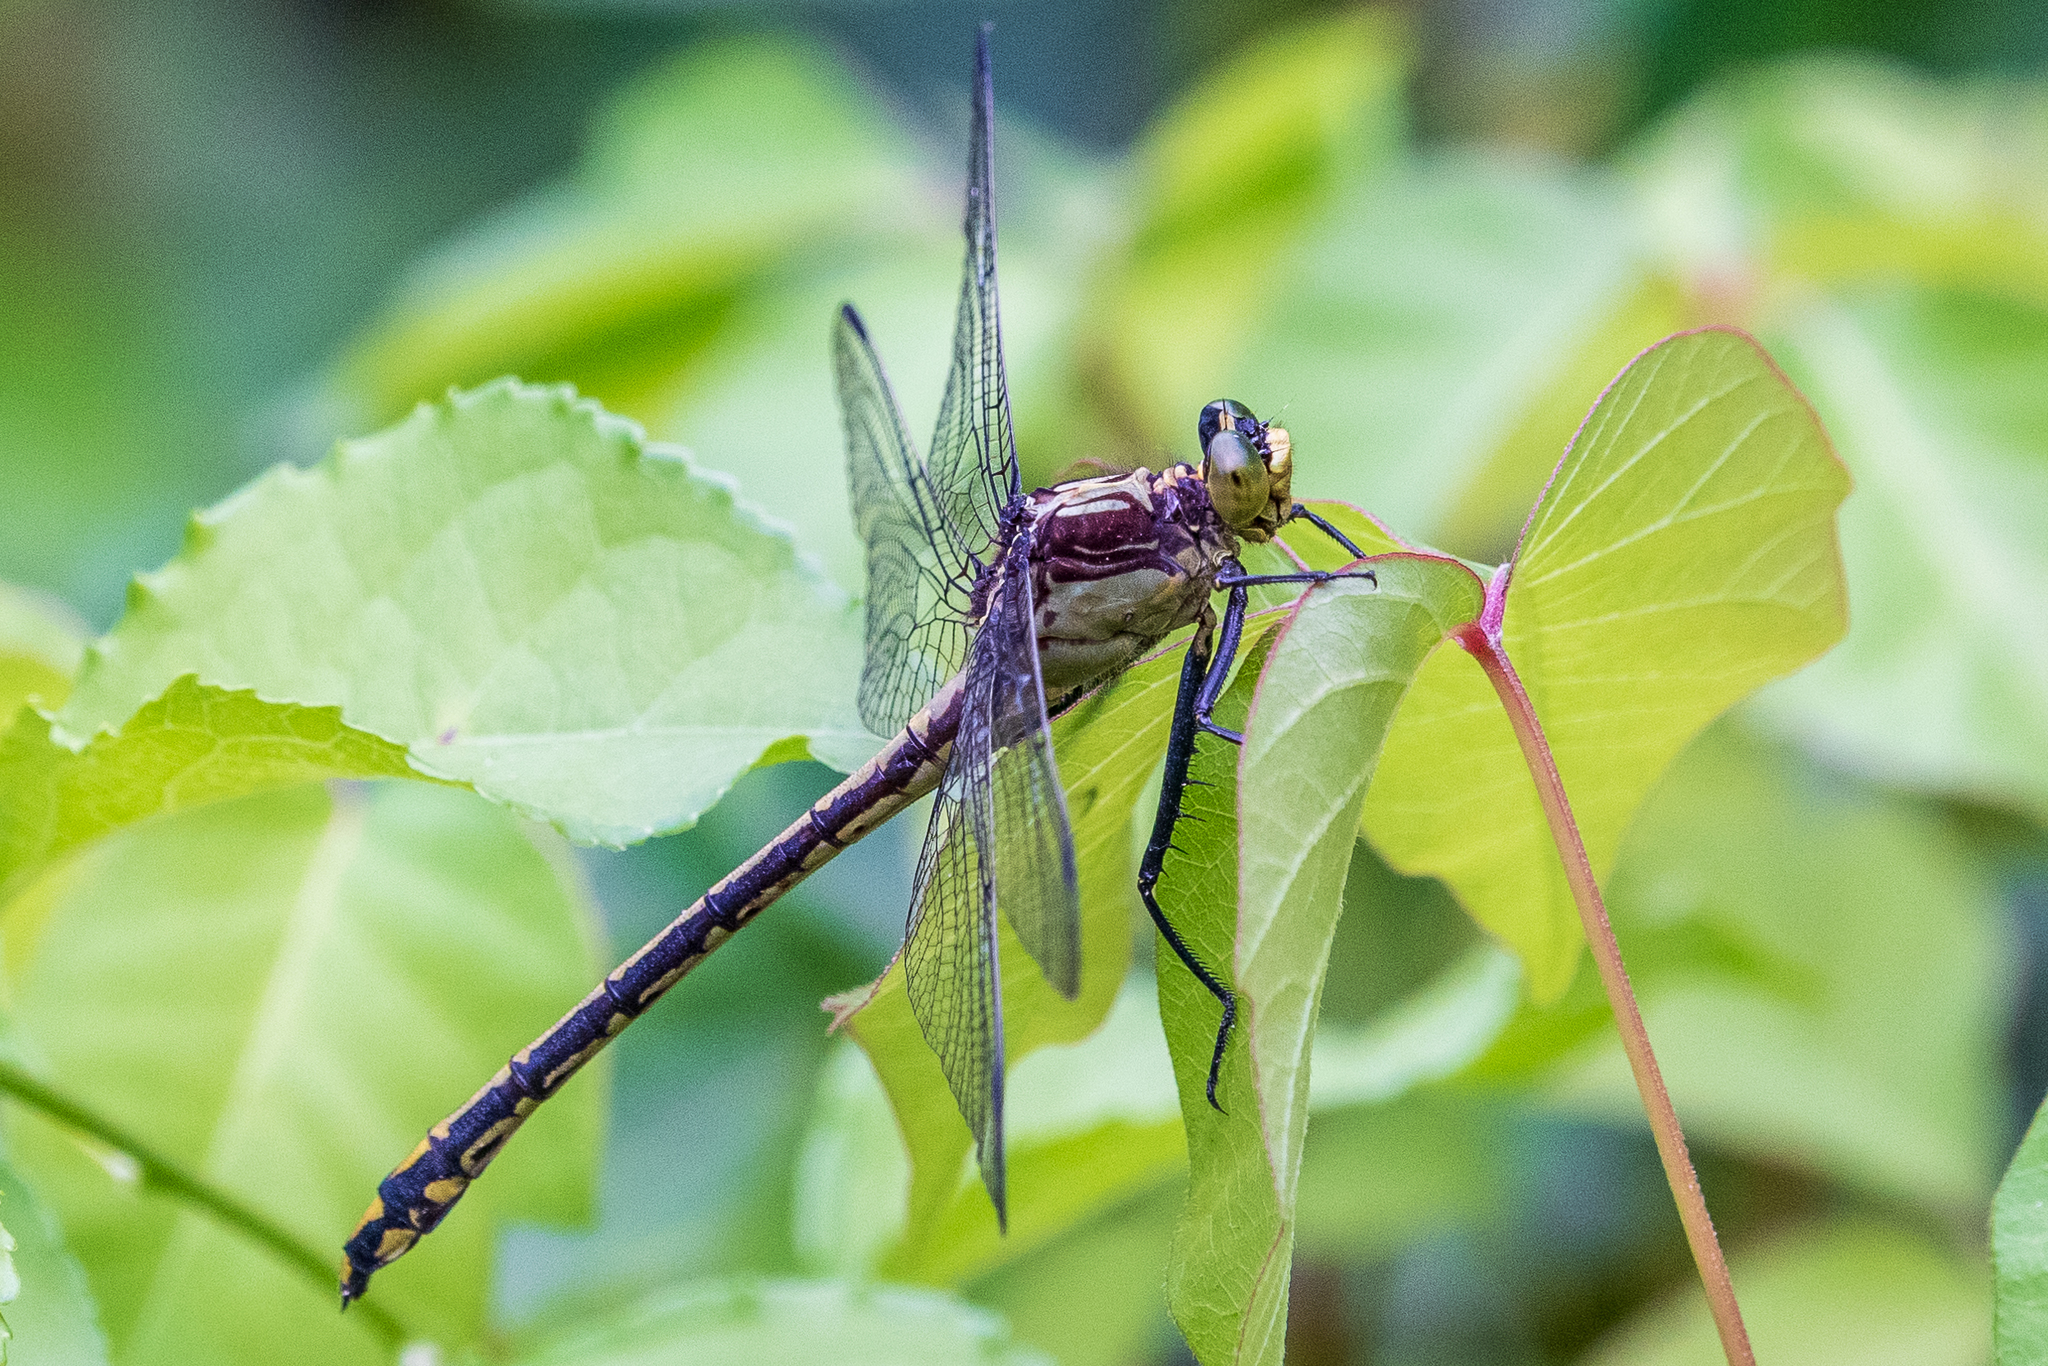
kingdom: Animalia
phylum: Arthropoda
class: Insecta
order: Odonata
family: Gomphidae
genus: Dromogomphus
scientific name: Dromogomphus spinosus
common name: Black-shouldered spinyleg
